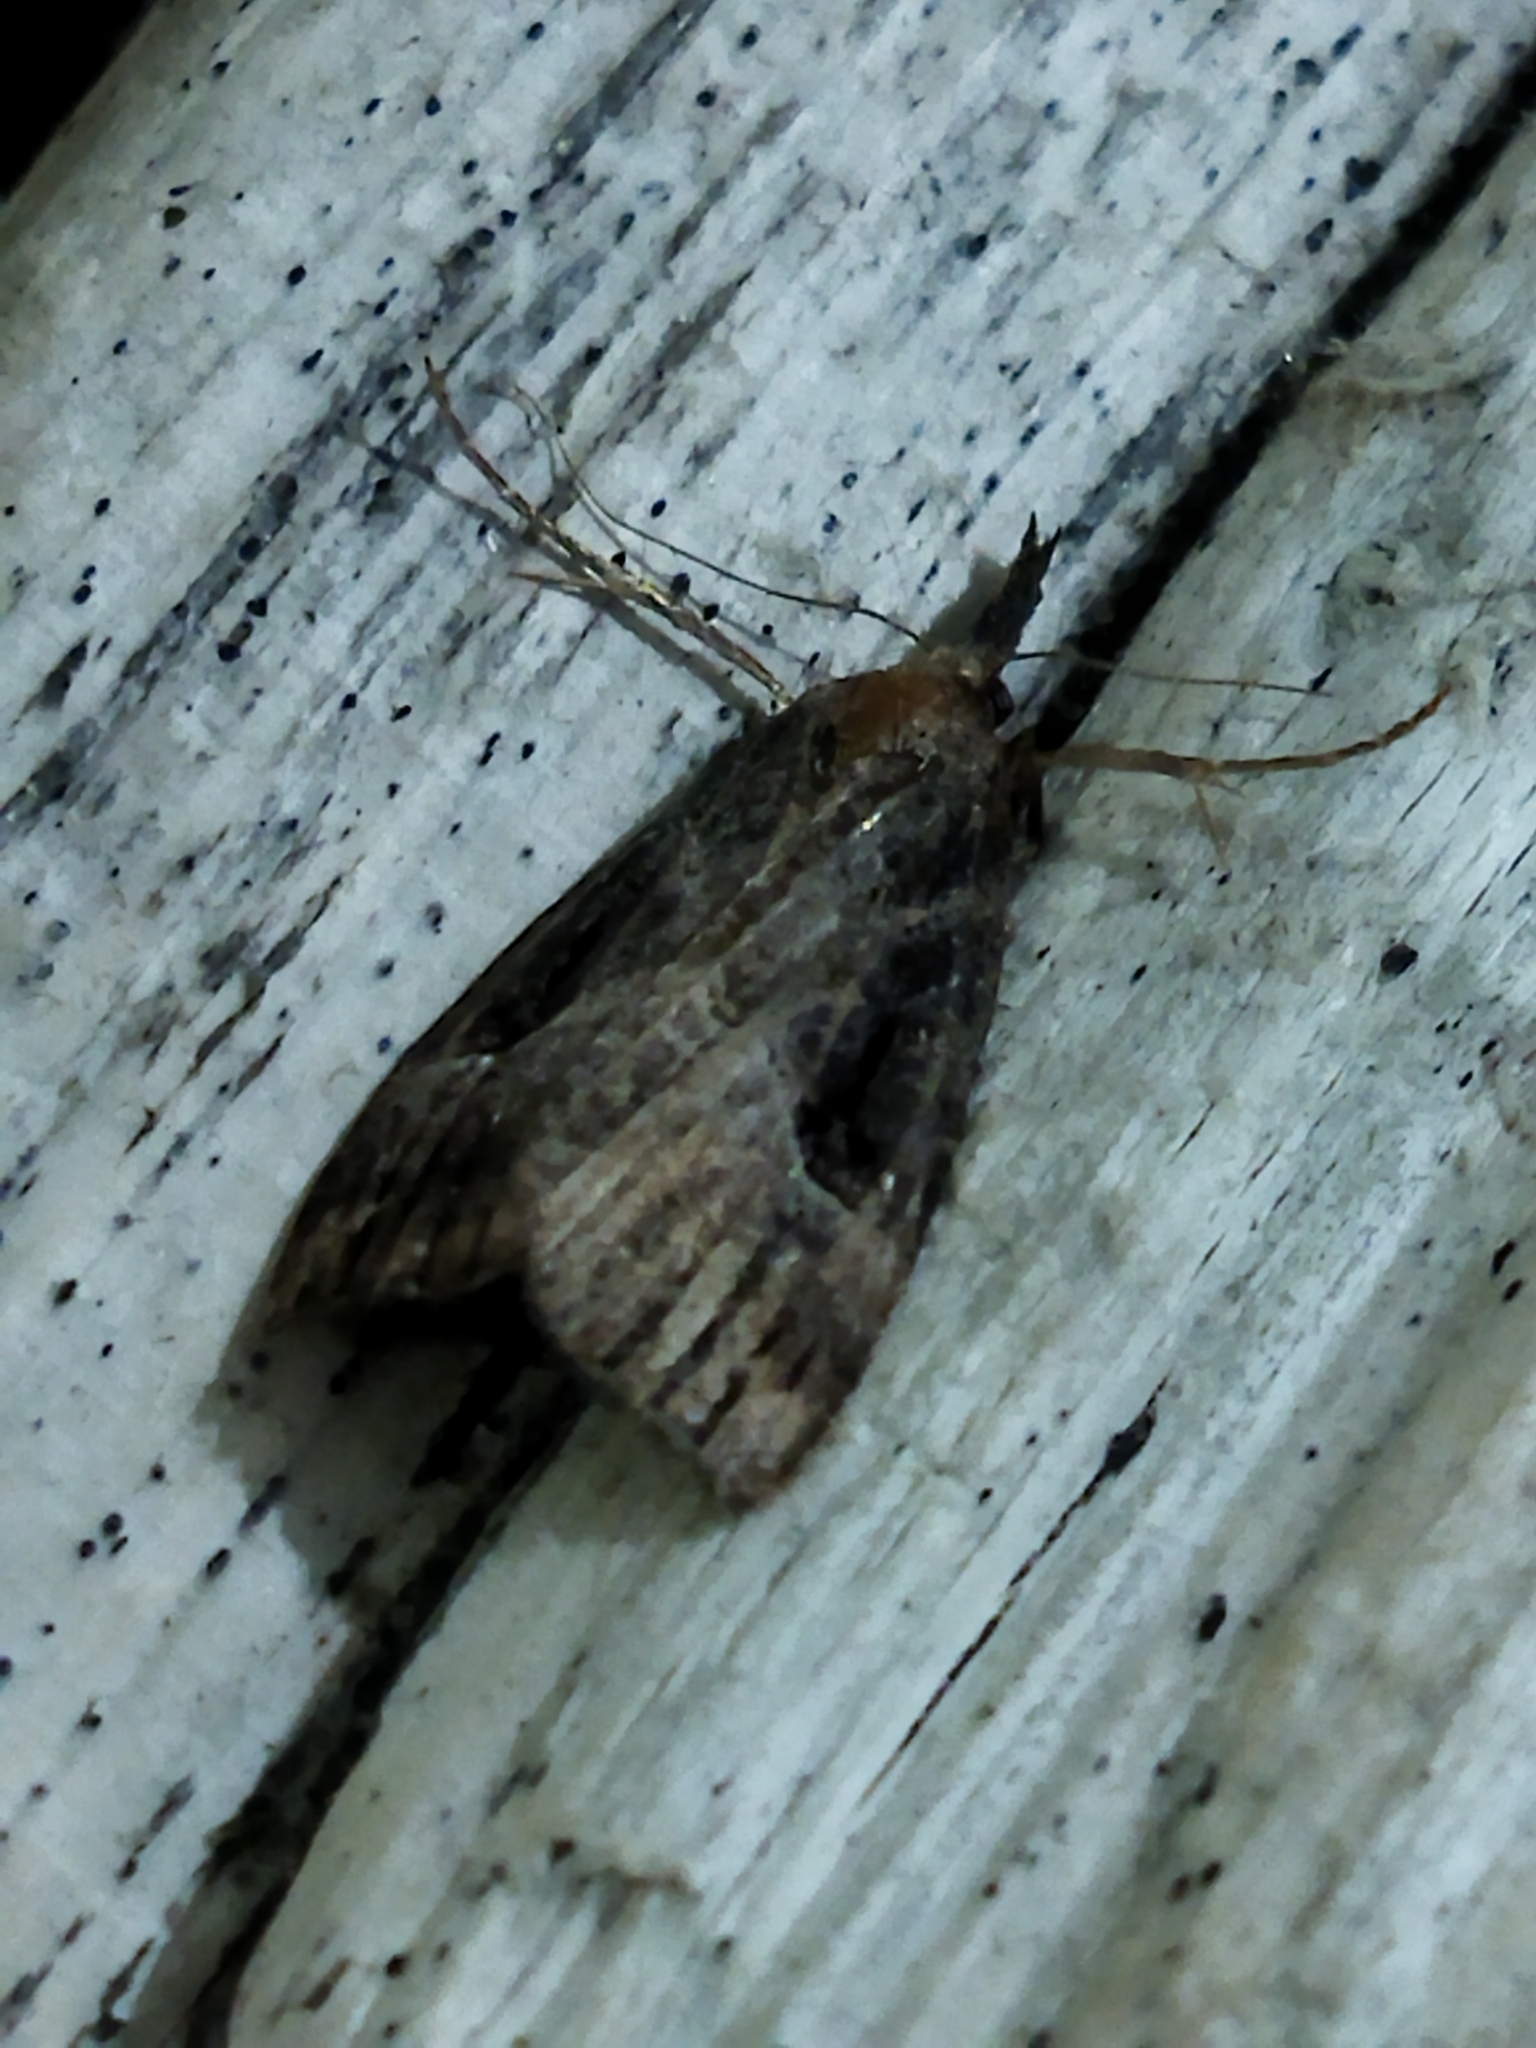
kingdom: Animalia
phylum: Arthropoda
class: Insecta
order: Lepidoptera
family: Erebidae
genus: Hypena
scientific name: Hypena rostralis
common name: Buttoned snout
